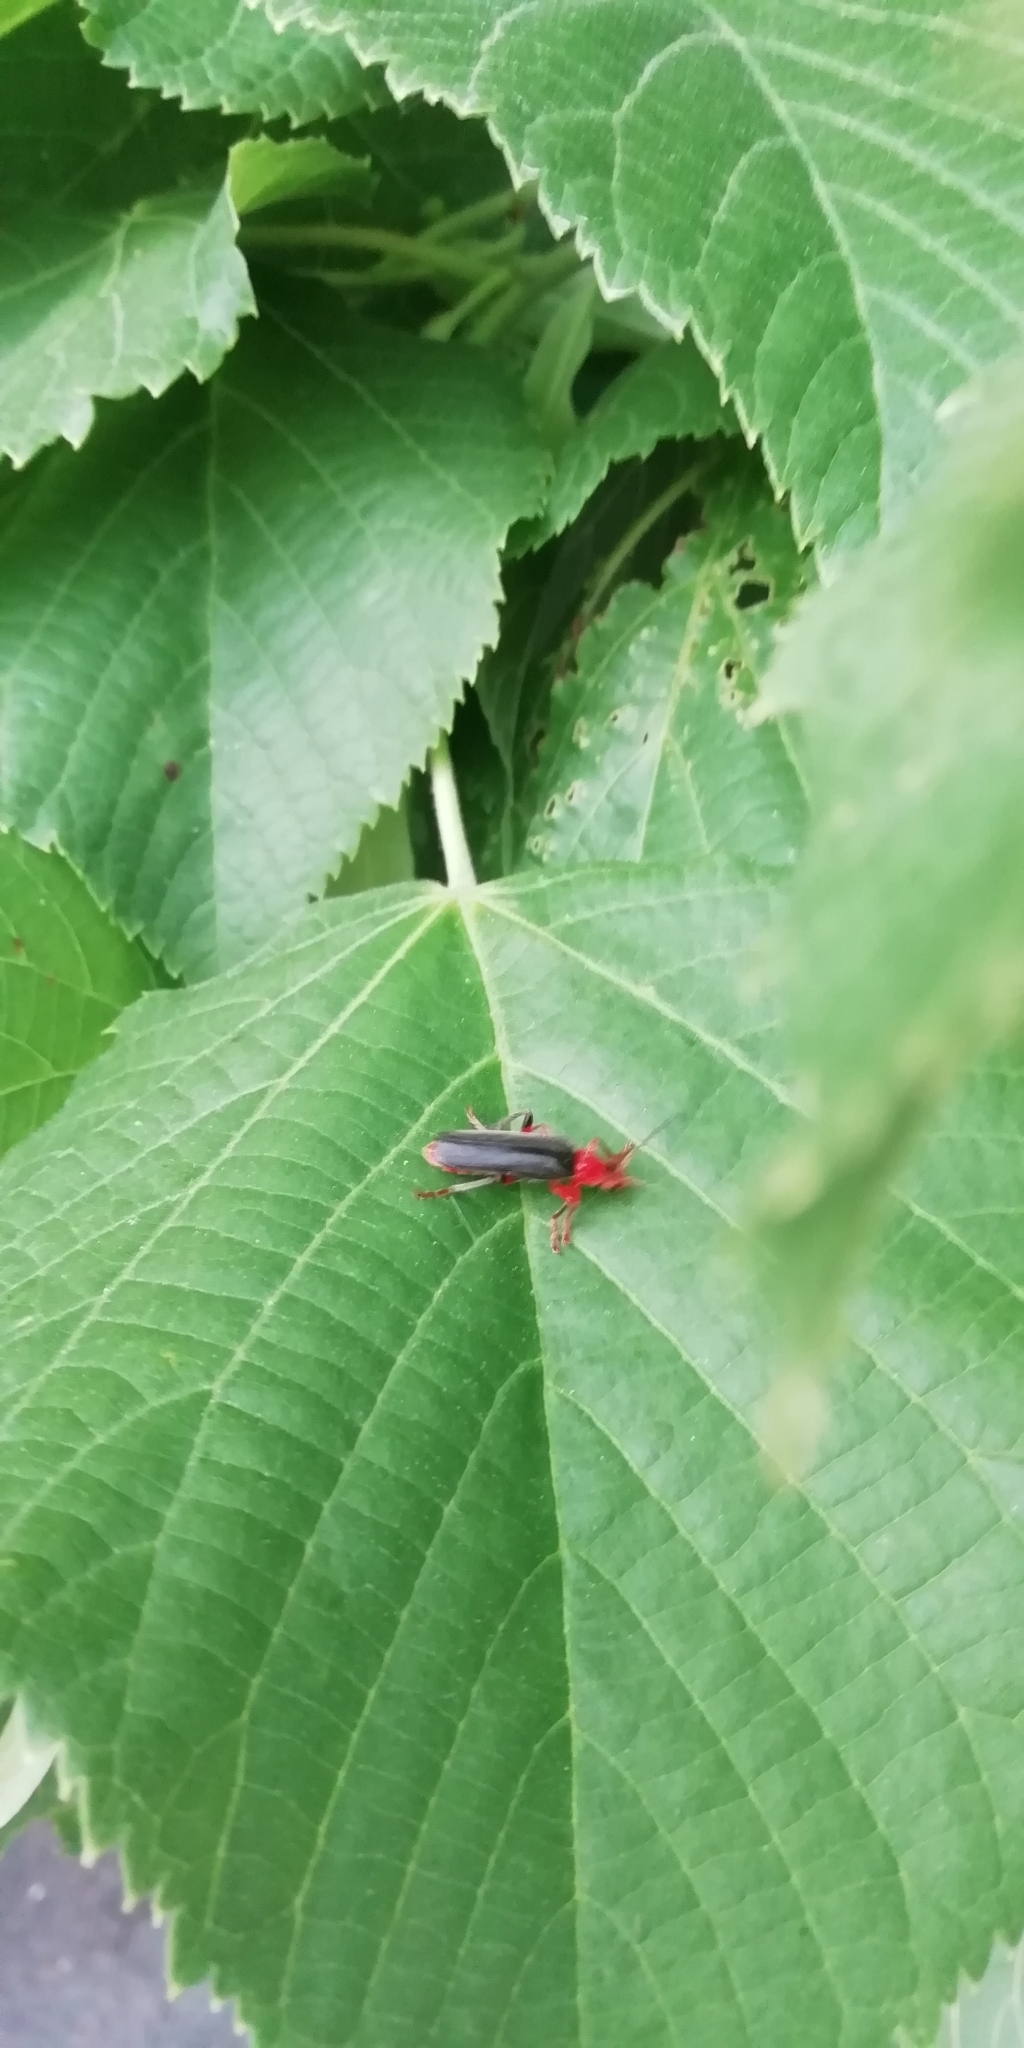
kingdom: Animalia
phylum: Arthropoda
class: Insecta
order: Coleoptera
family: Cantharidae
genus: Cantharis
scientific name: Cantharis livida
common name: Livid soldier beetle
